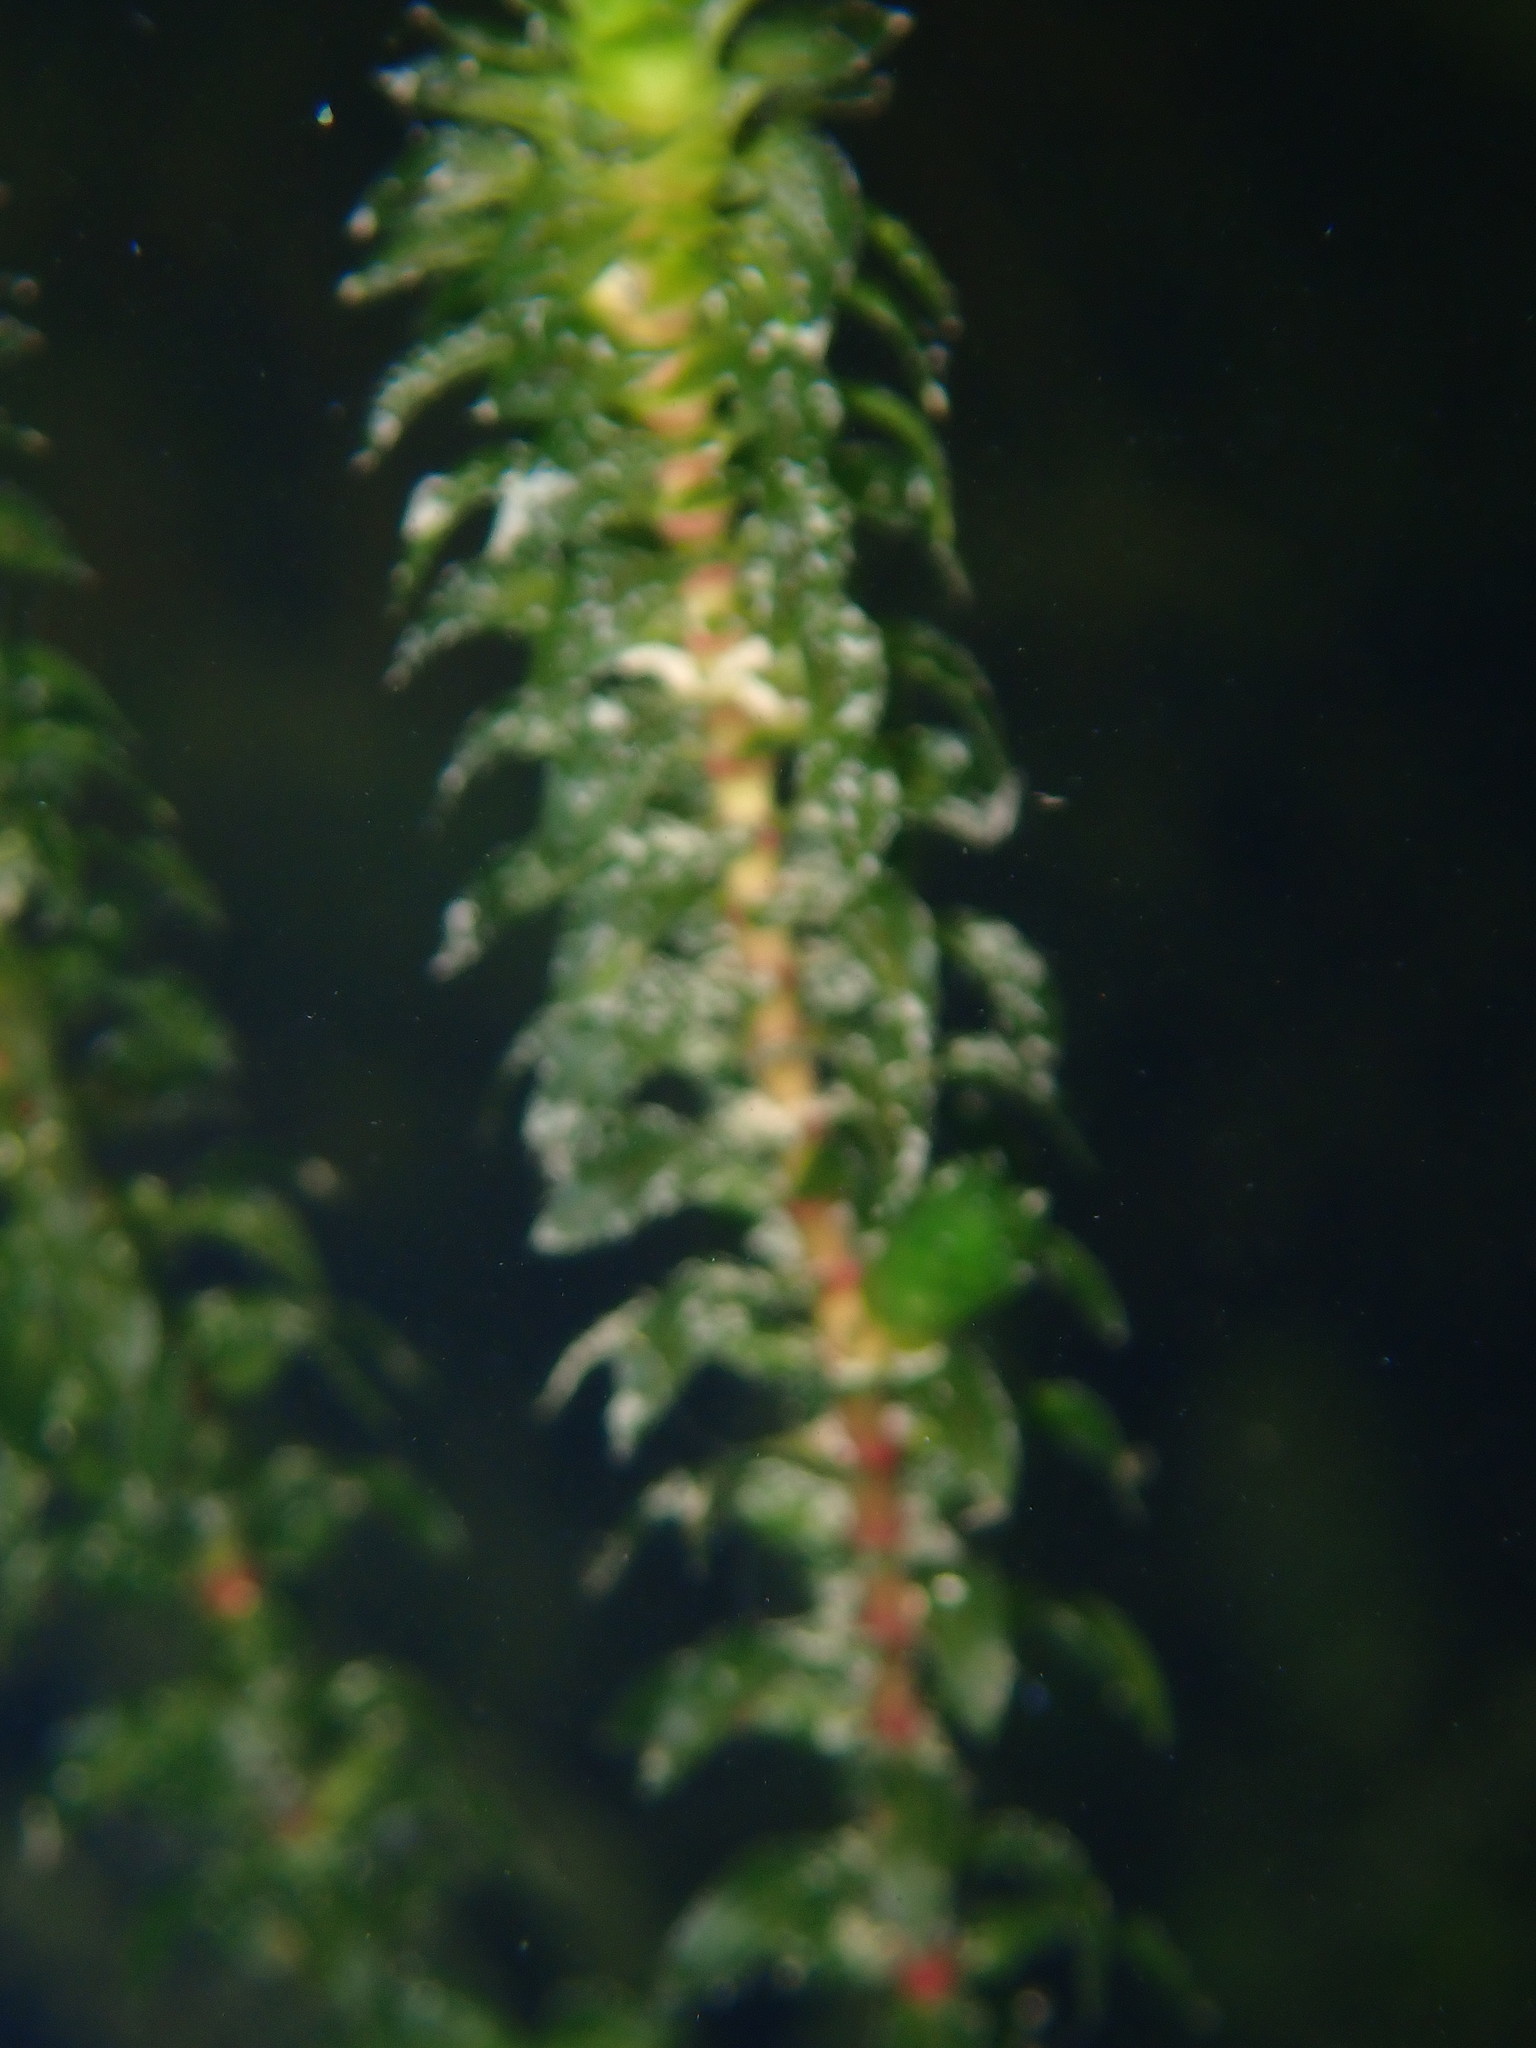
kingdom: Plantae
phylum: Tracheophyta
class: Liliopsida
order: Alismatales
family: Hydrocharitaceae
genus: Elodea
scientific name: Elodea canadensis
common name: Canadian waterweed
